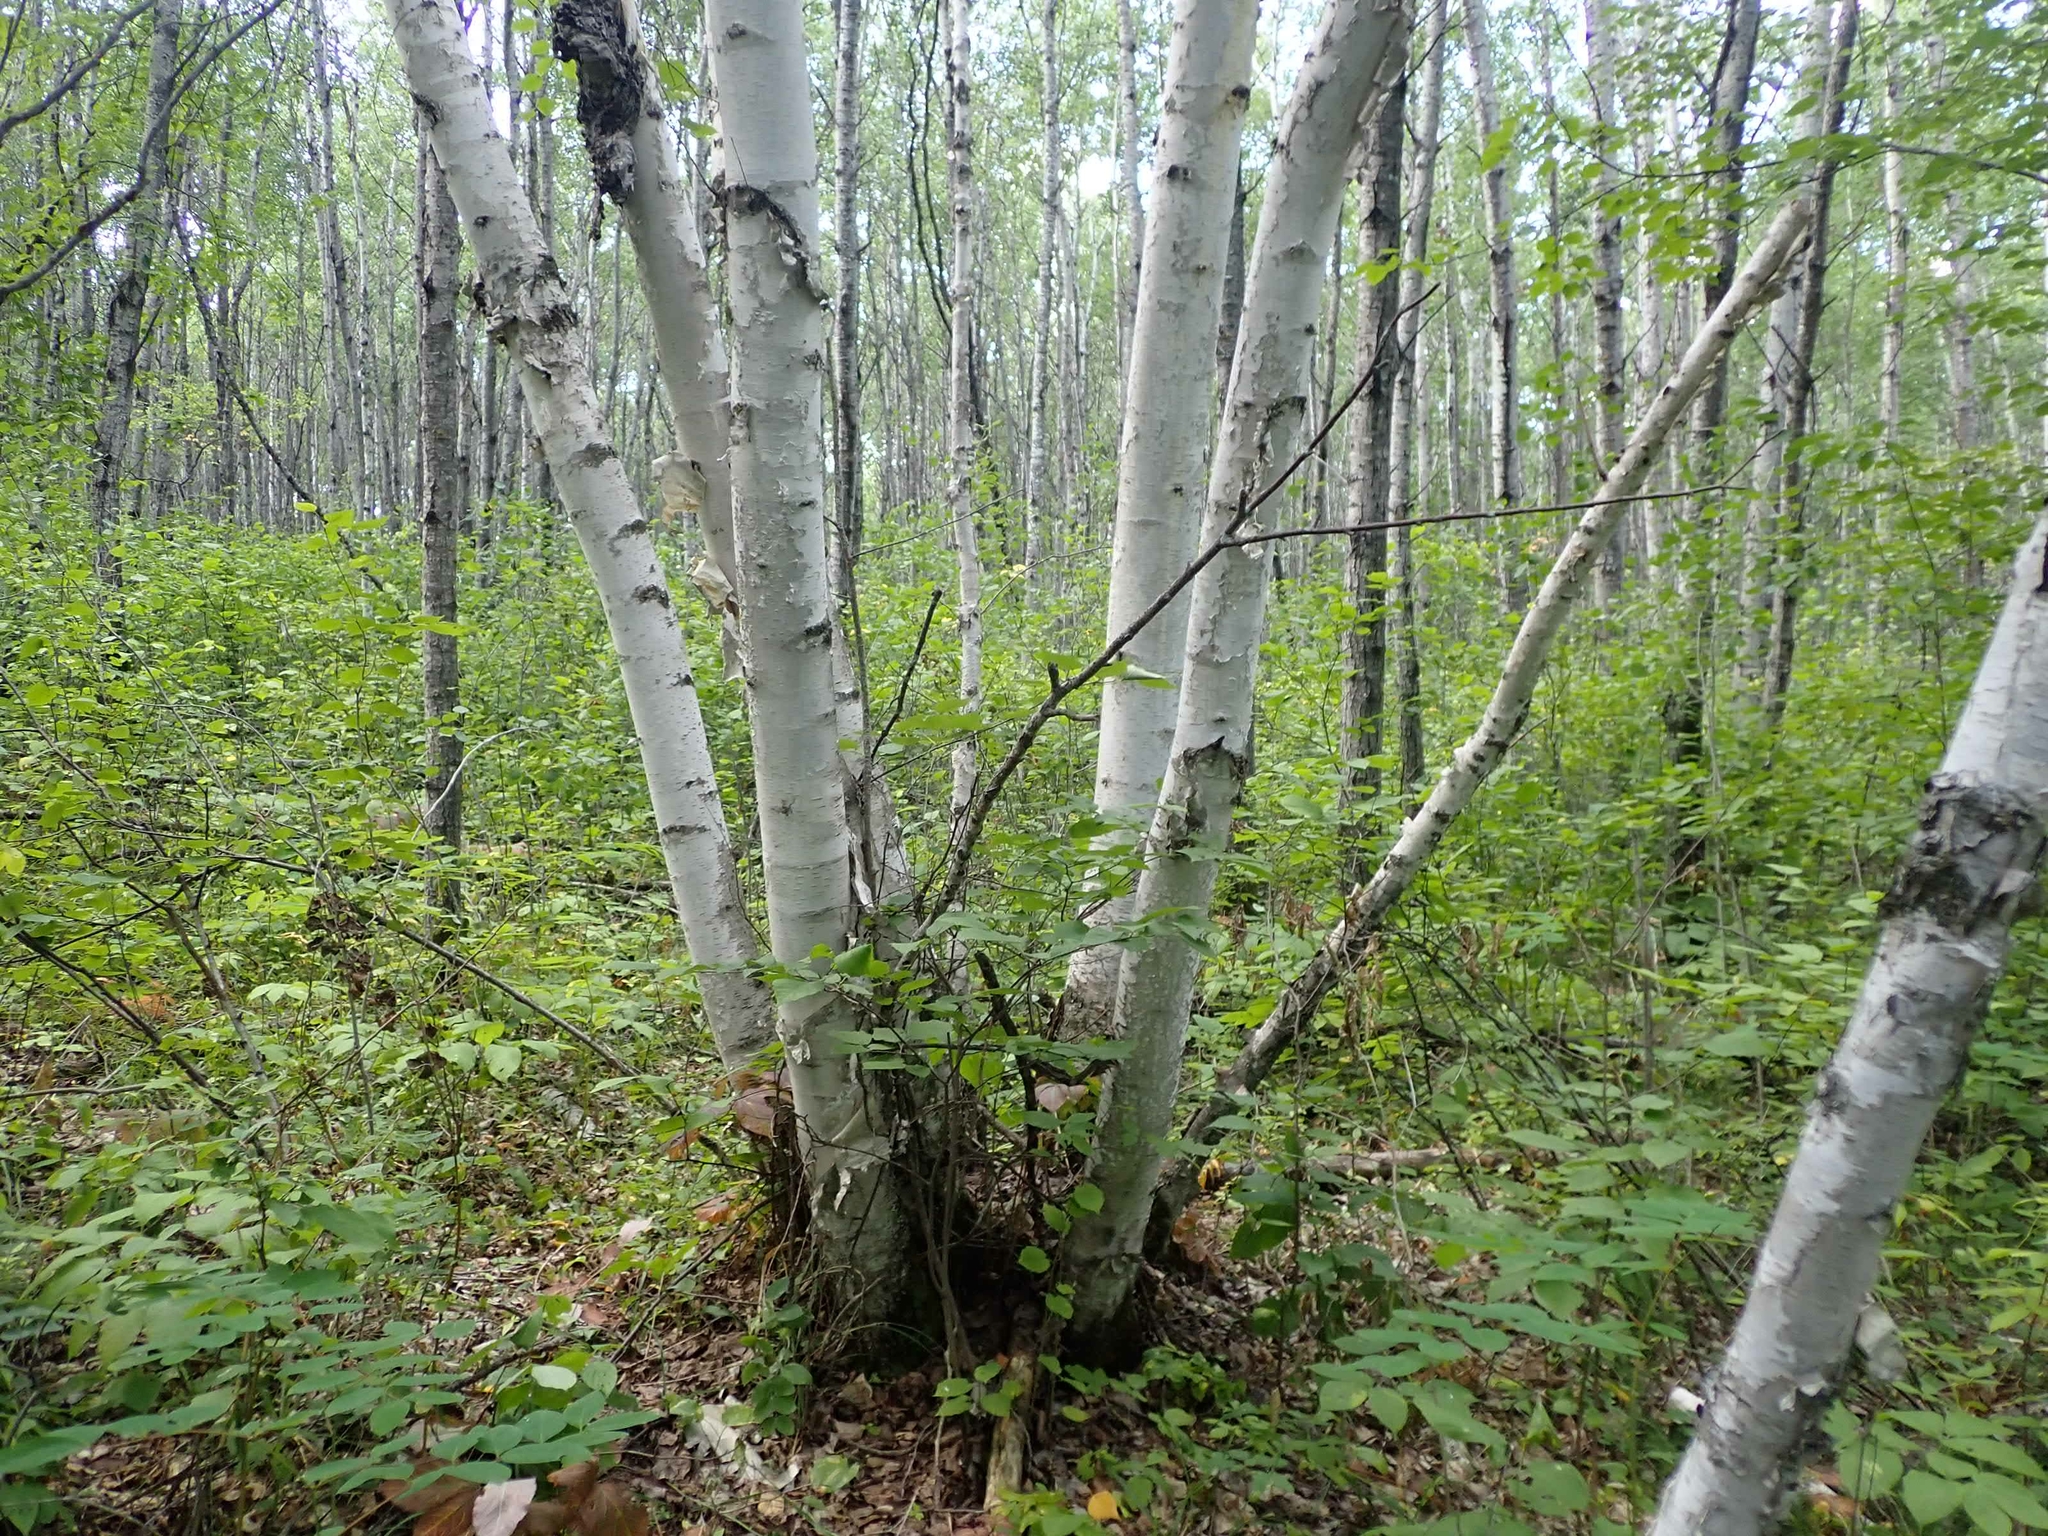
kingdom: Plantae
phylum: Tracheophyta
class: Magnoliopsida
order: Fagales
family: Betulaceae
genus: Betula
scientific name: Betula papyrifera
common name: Paper birch
